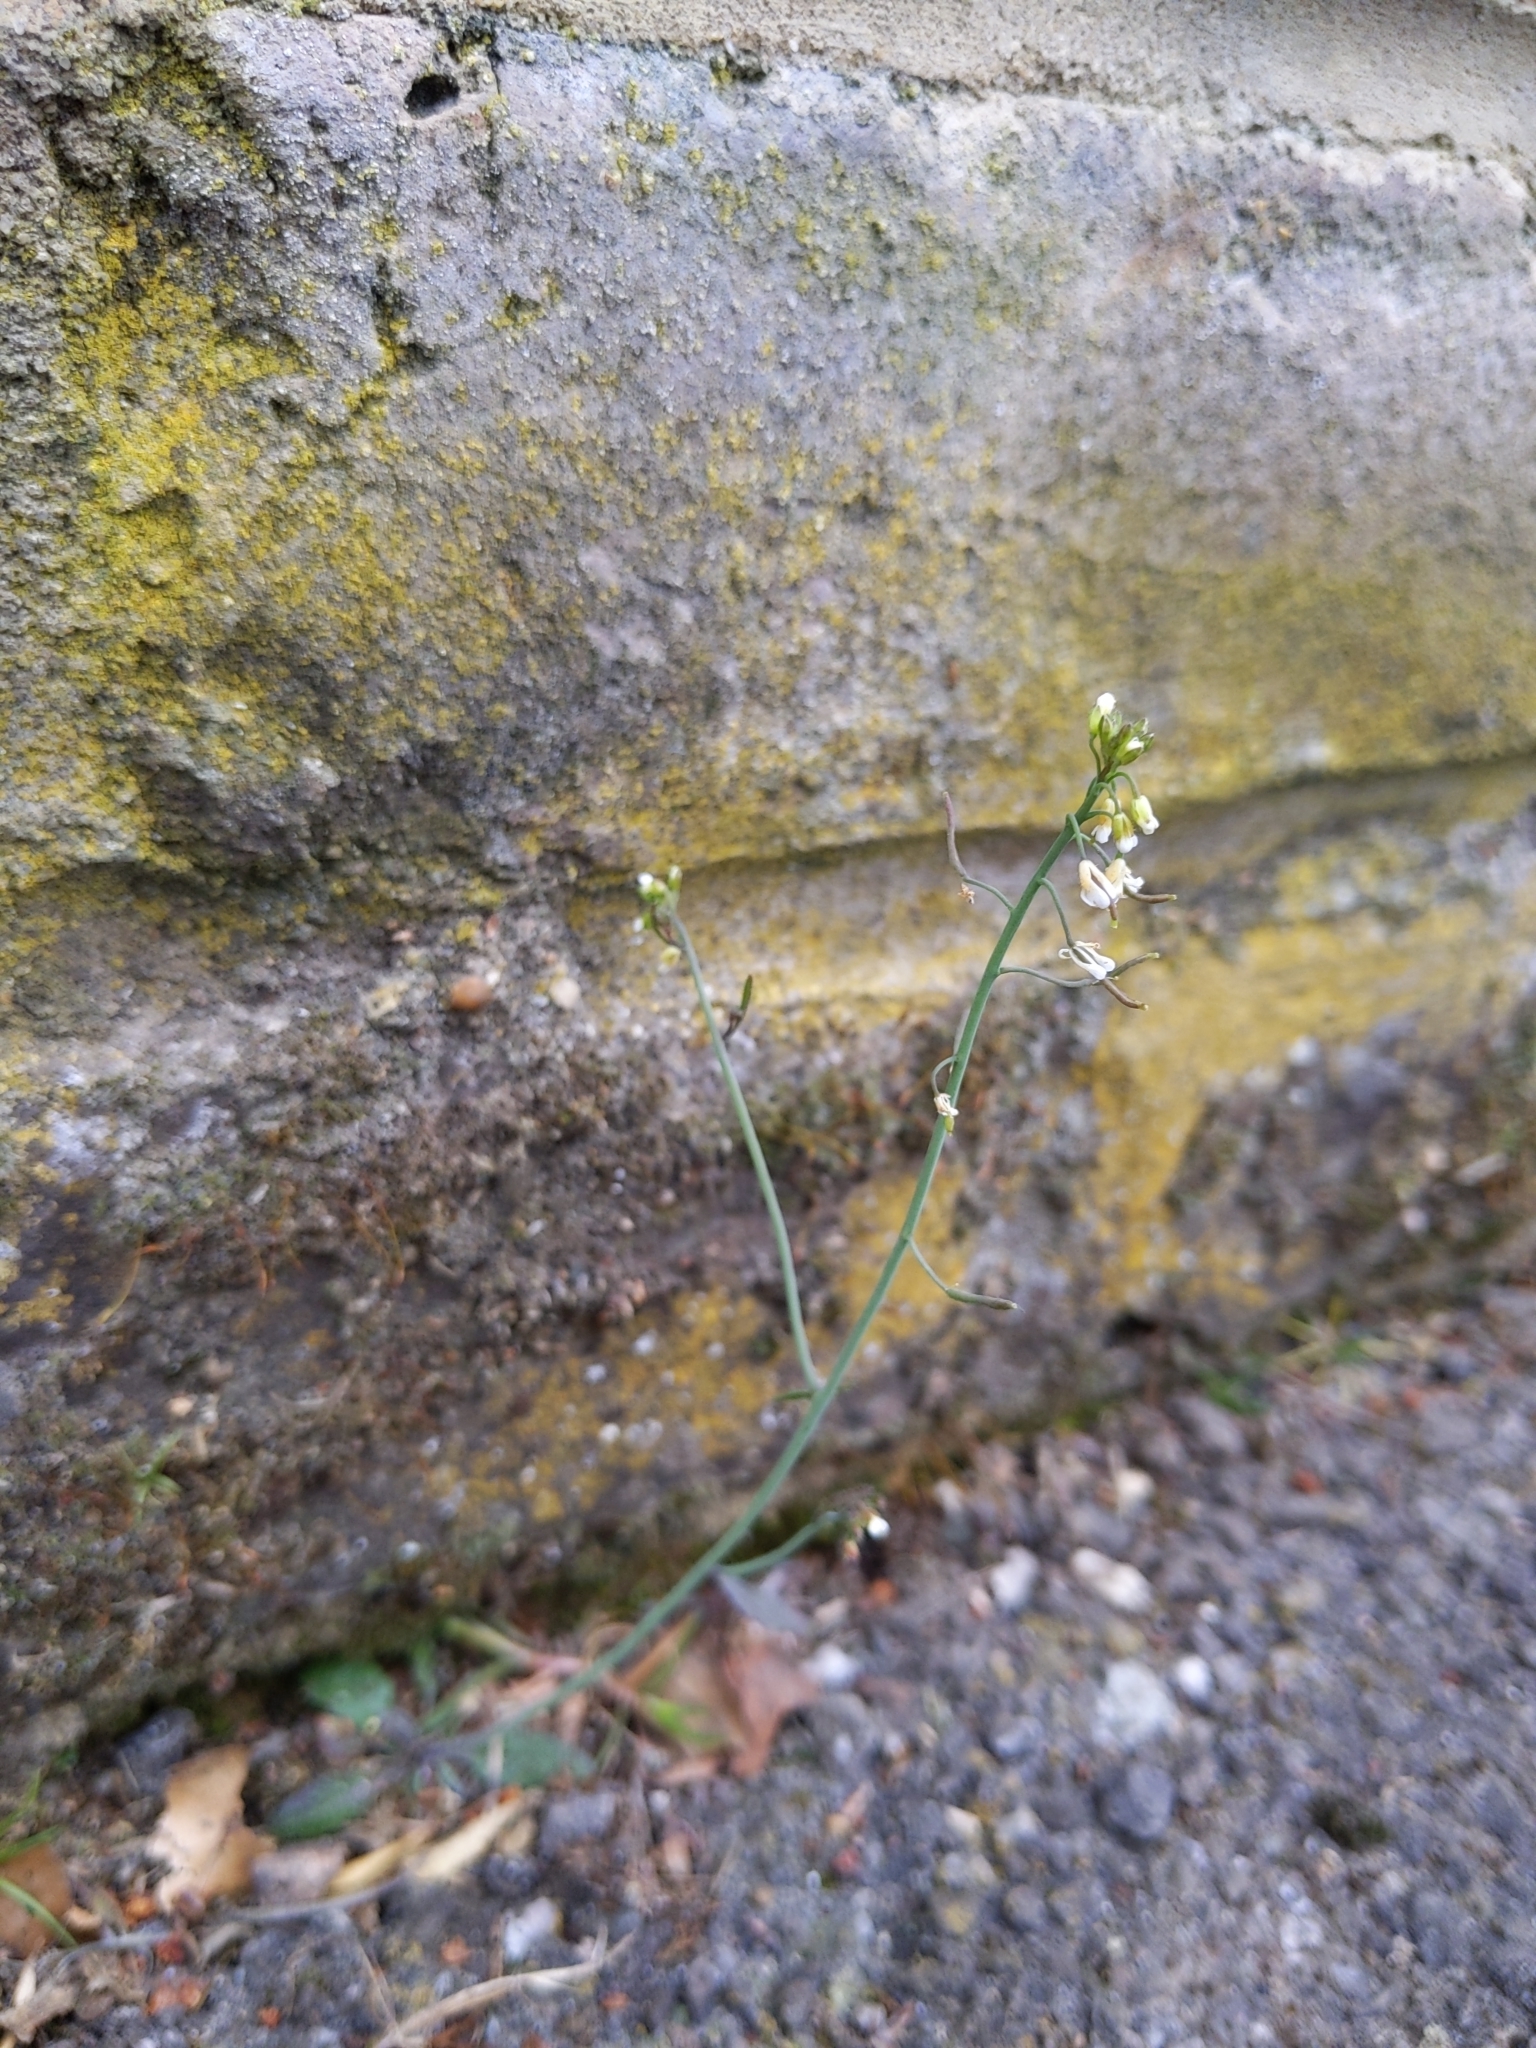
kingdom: Plantae
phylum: Tracheophyta
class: Magnoliopsida
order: Brassicales
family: Brassicaceae
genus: Arabidopsis
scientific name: Arabidopsis thaliana
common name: Thale cress
